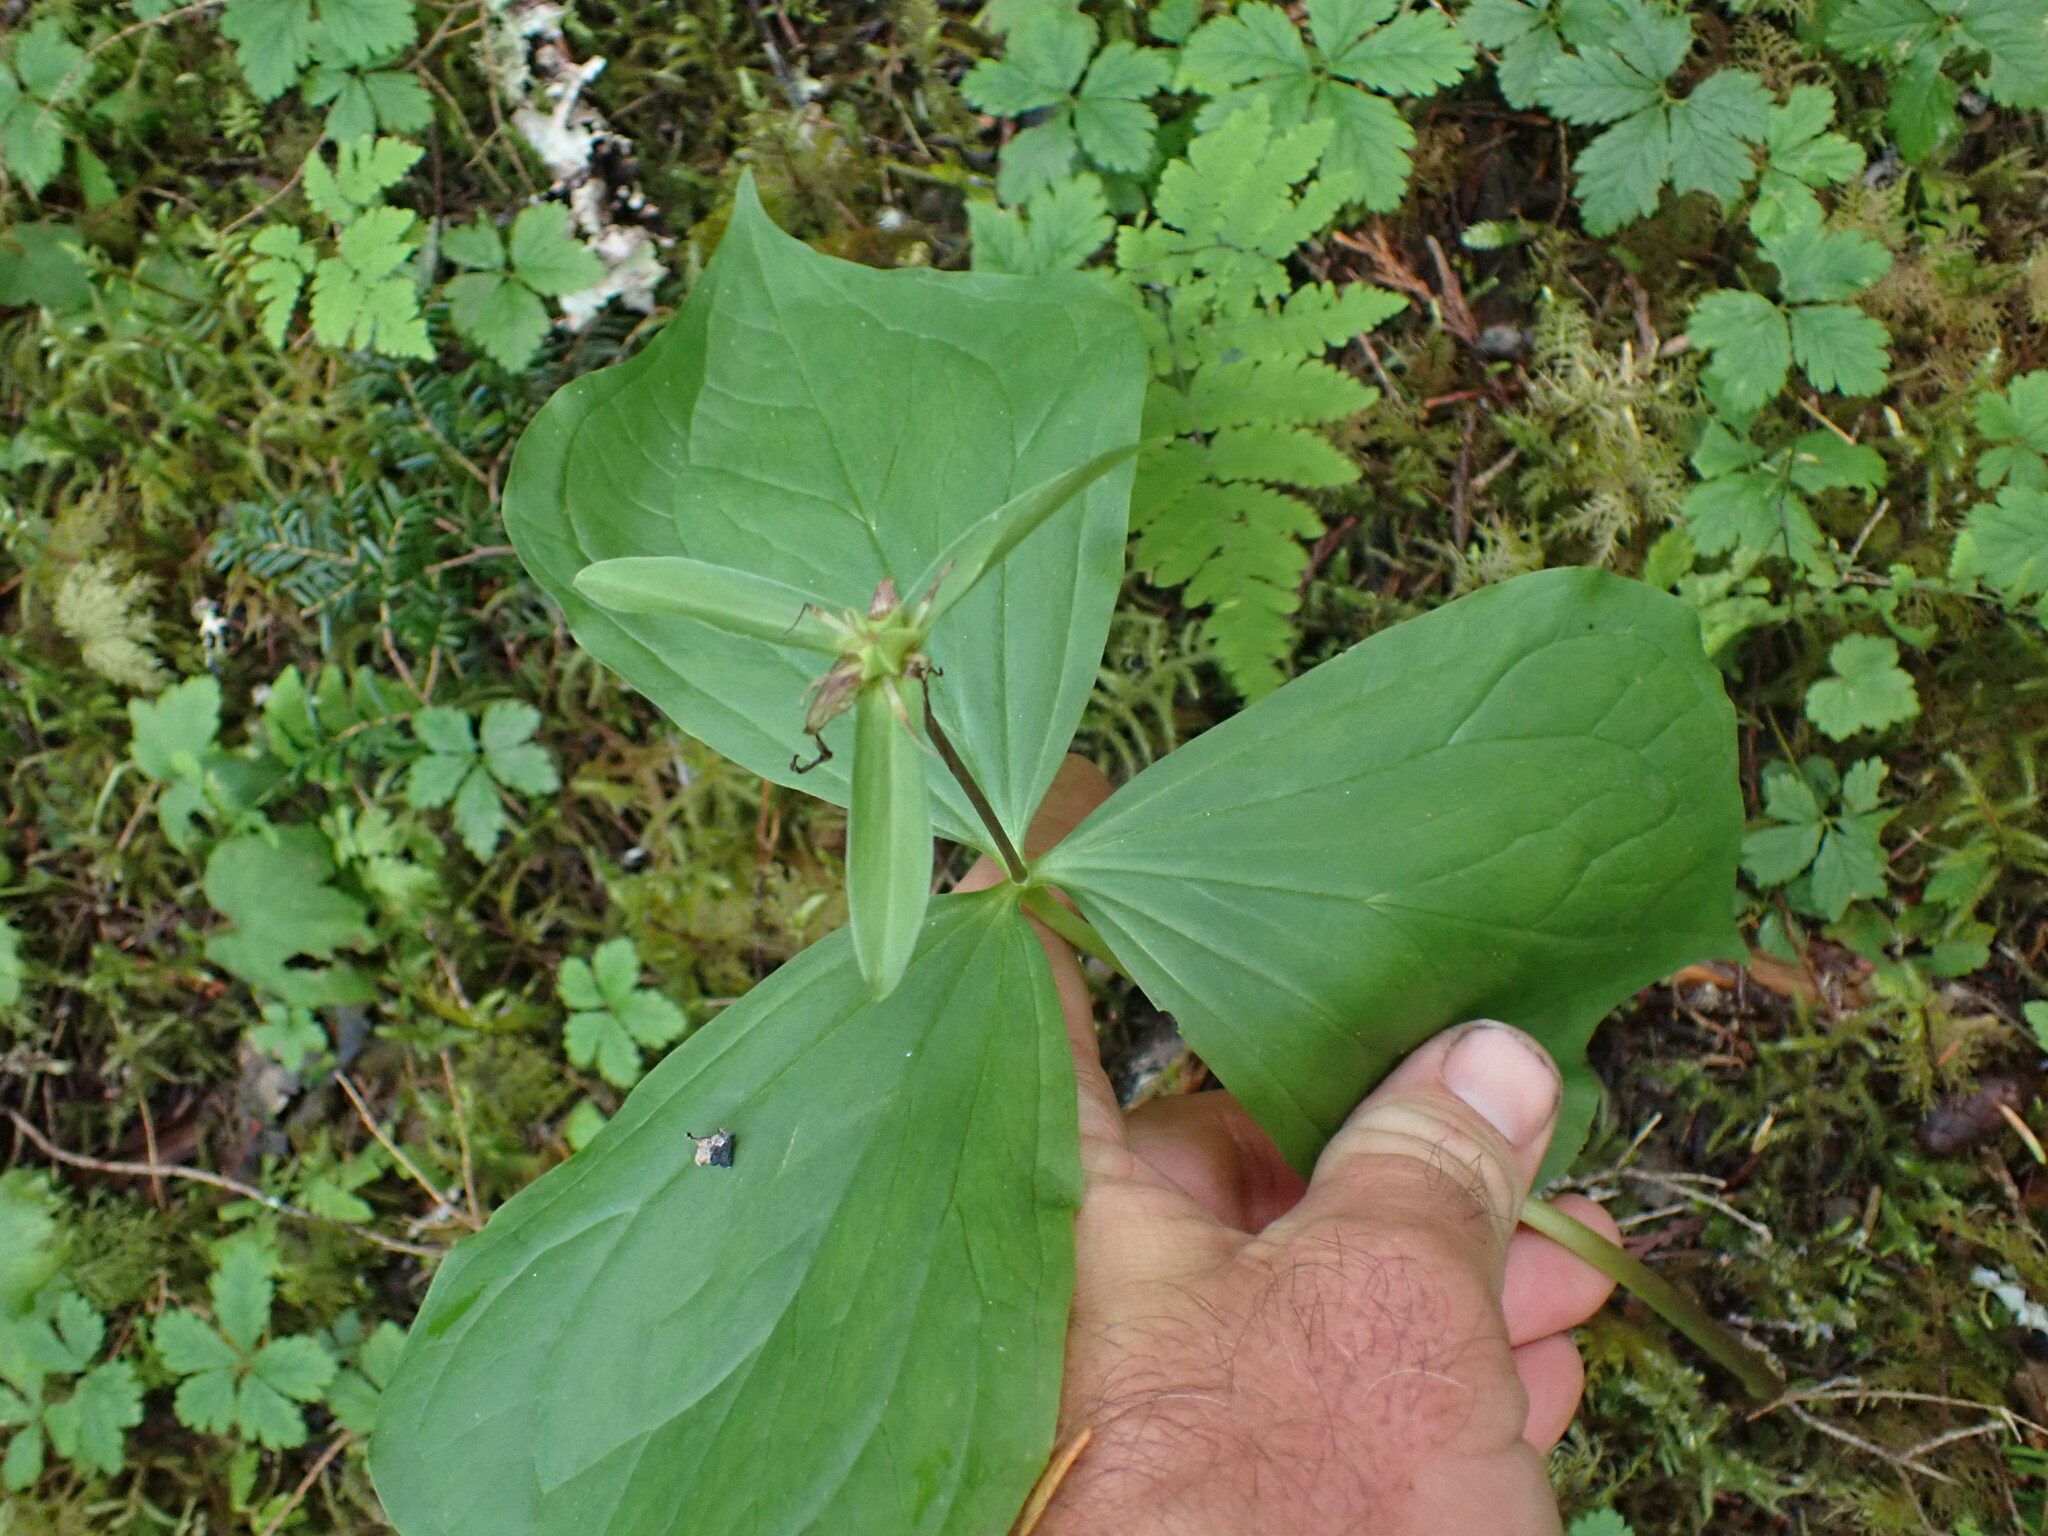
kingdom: Plantae
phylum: Tracheophyta
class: Liliopsida
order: Liliales
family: Melanthiaceae
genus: Trillium
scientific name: Trillium ovatum
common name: Pacific trillium
